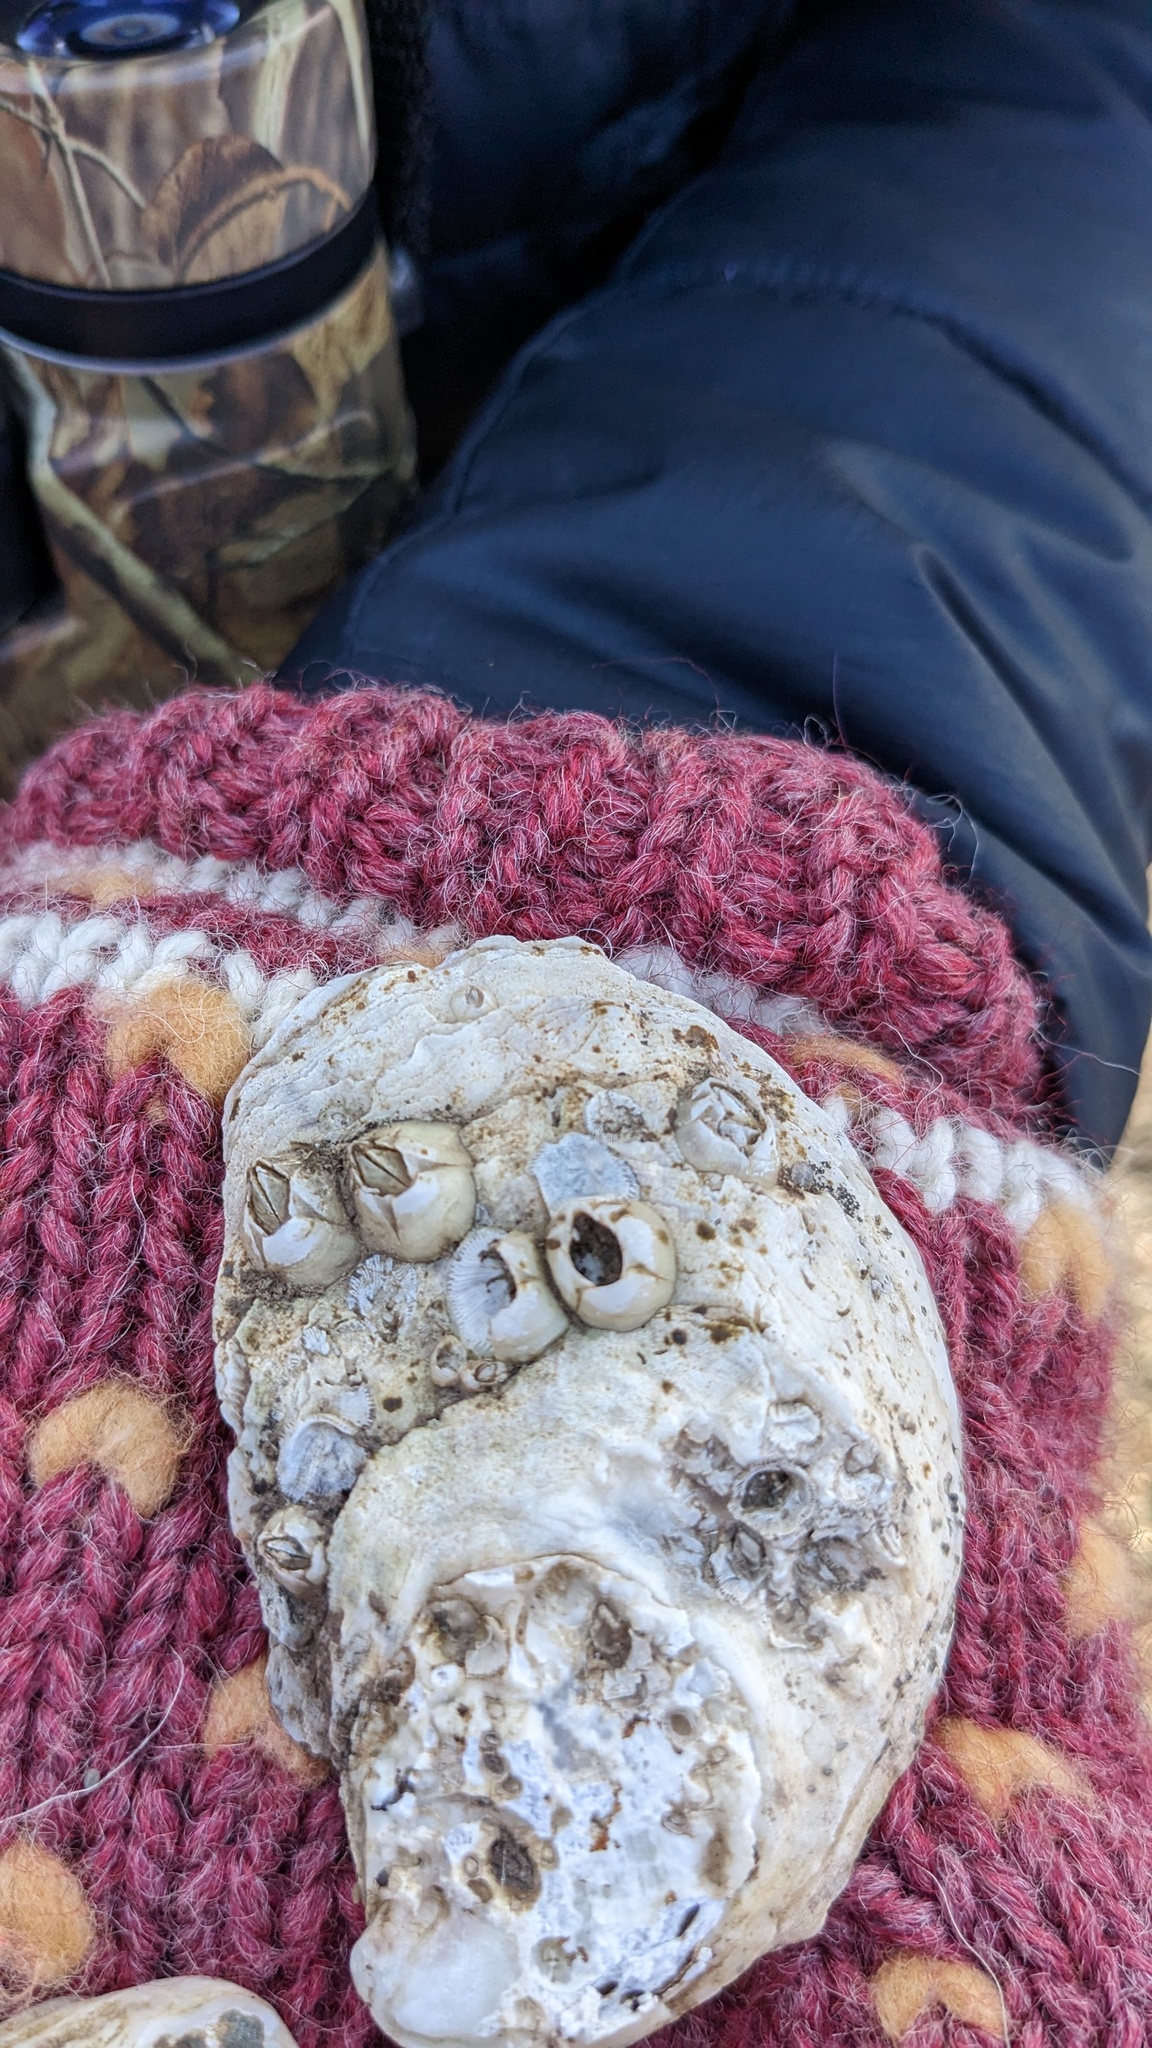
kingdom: Animalia
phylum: Mollusca
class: Bivalvia
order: Ostreida
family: Ostreidae
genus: Crassostrea
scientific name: Crassostrea virginica
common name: American oyster
